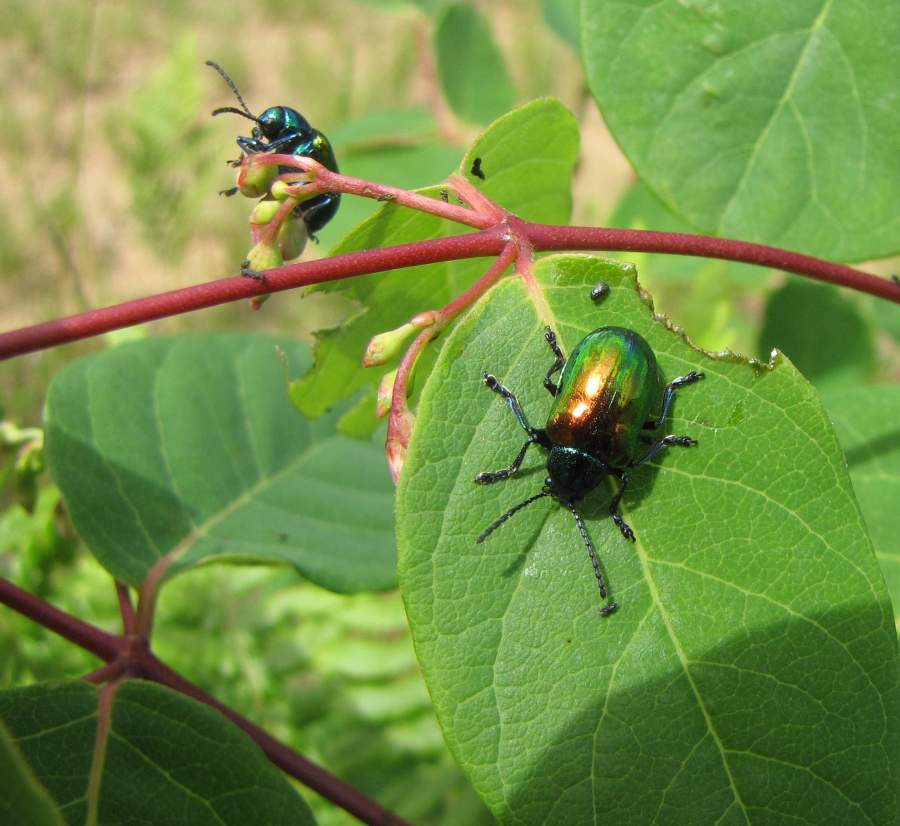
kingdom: Animalia
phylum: Arthropoda
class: Insecta
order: Coleoptera
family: Chrysomelidae
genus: Chrysochus
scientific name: Chrysochus auratus
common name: Dogbane leaf beetle
